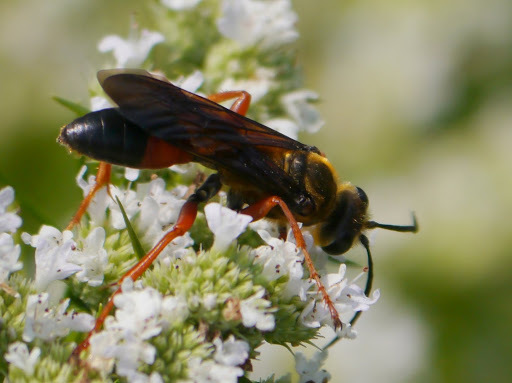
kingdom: Animalia
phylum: Arthropoda
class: Insecta
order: Hymenoptera
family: Sphecidae
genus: Sphex
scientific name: Sphex ichneumoneus
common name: Great golden digger wasp
